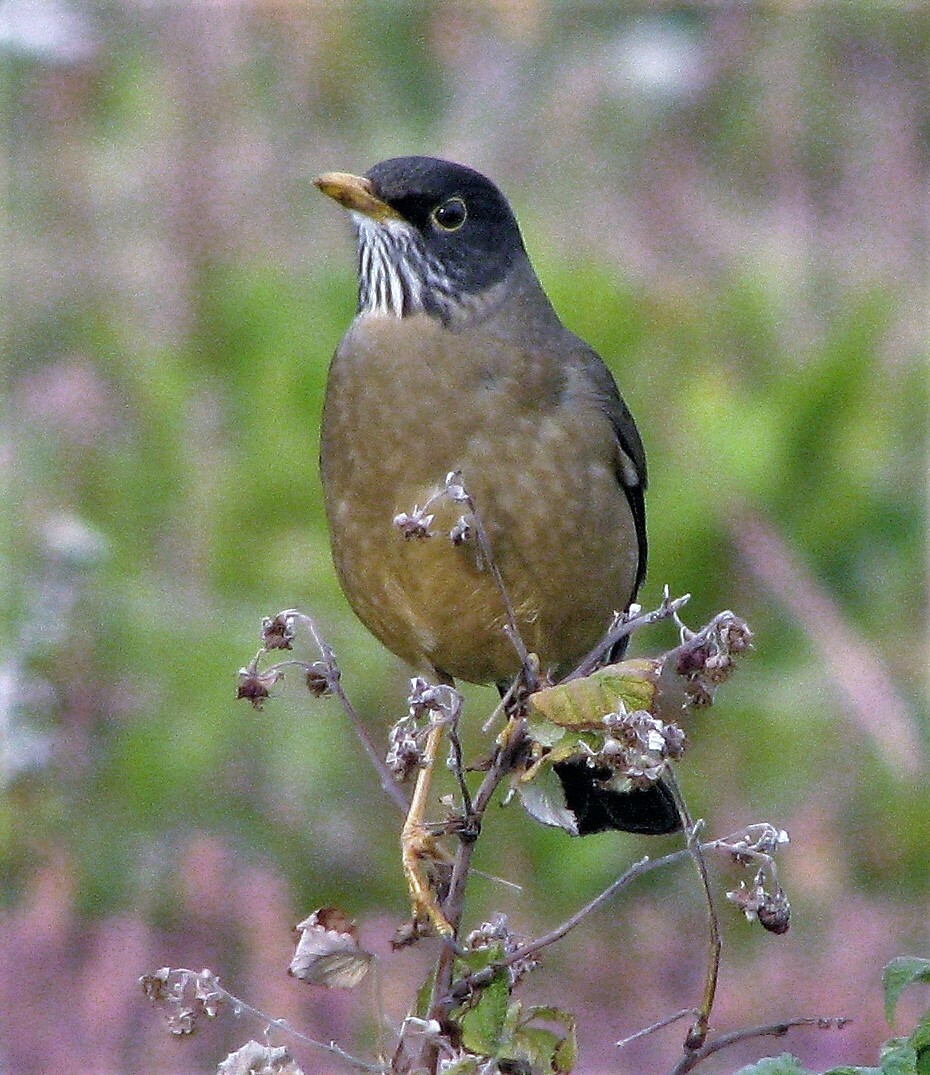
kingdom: Animalia
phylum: Chordata
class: Aves
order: Passeriformes
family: Turdidae
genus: Turdus
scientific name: Turdus falcklandii
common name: Austral thrush
